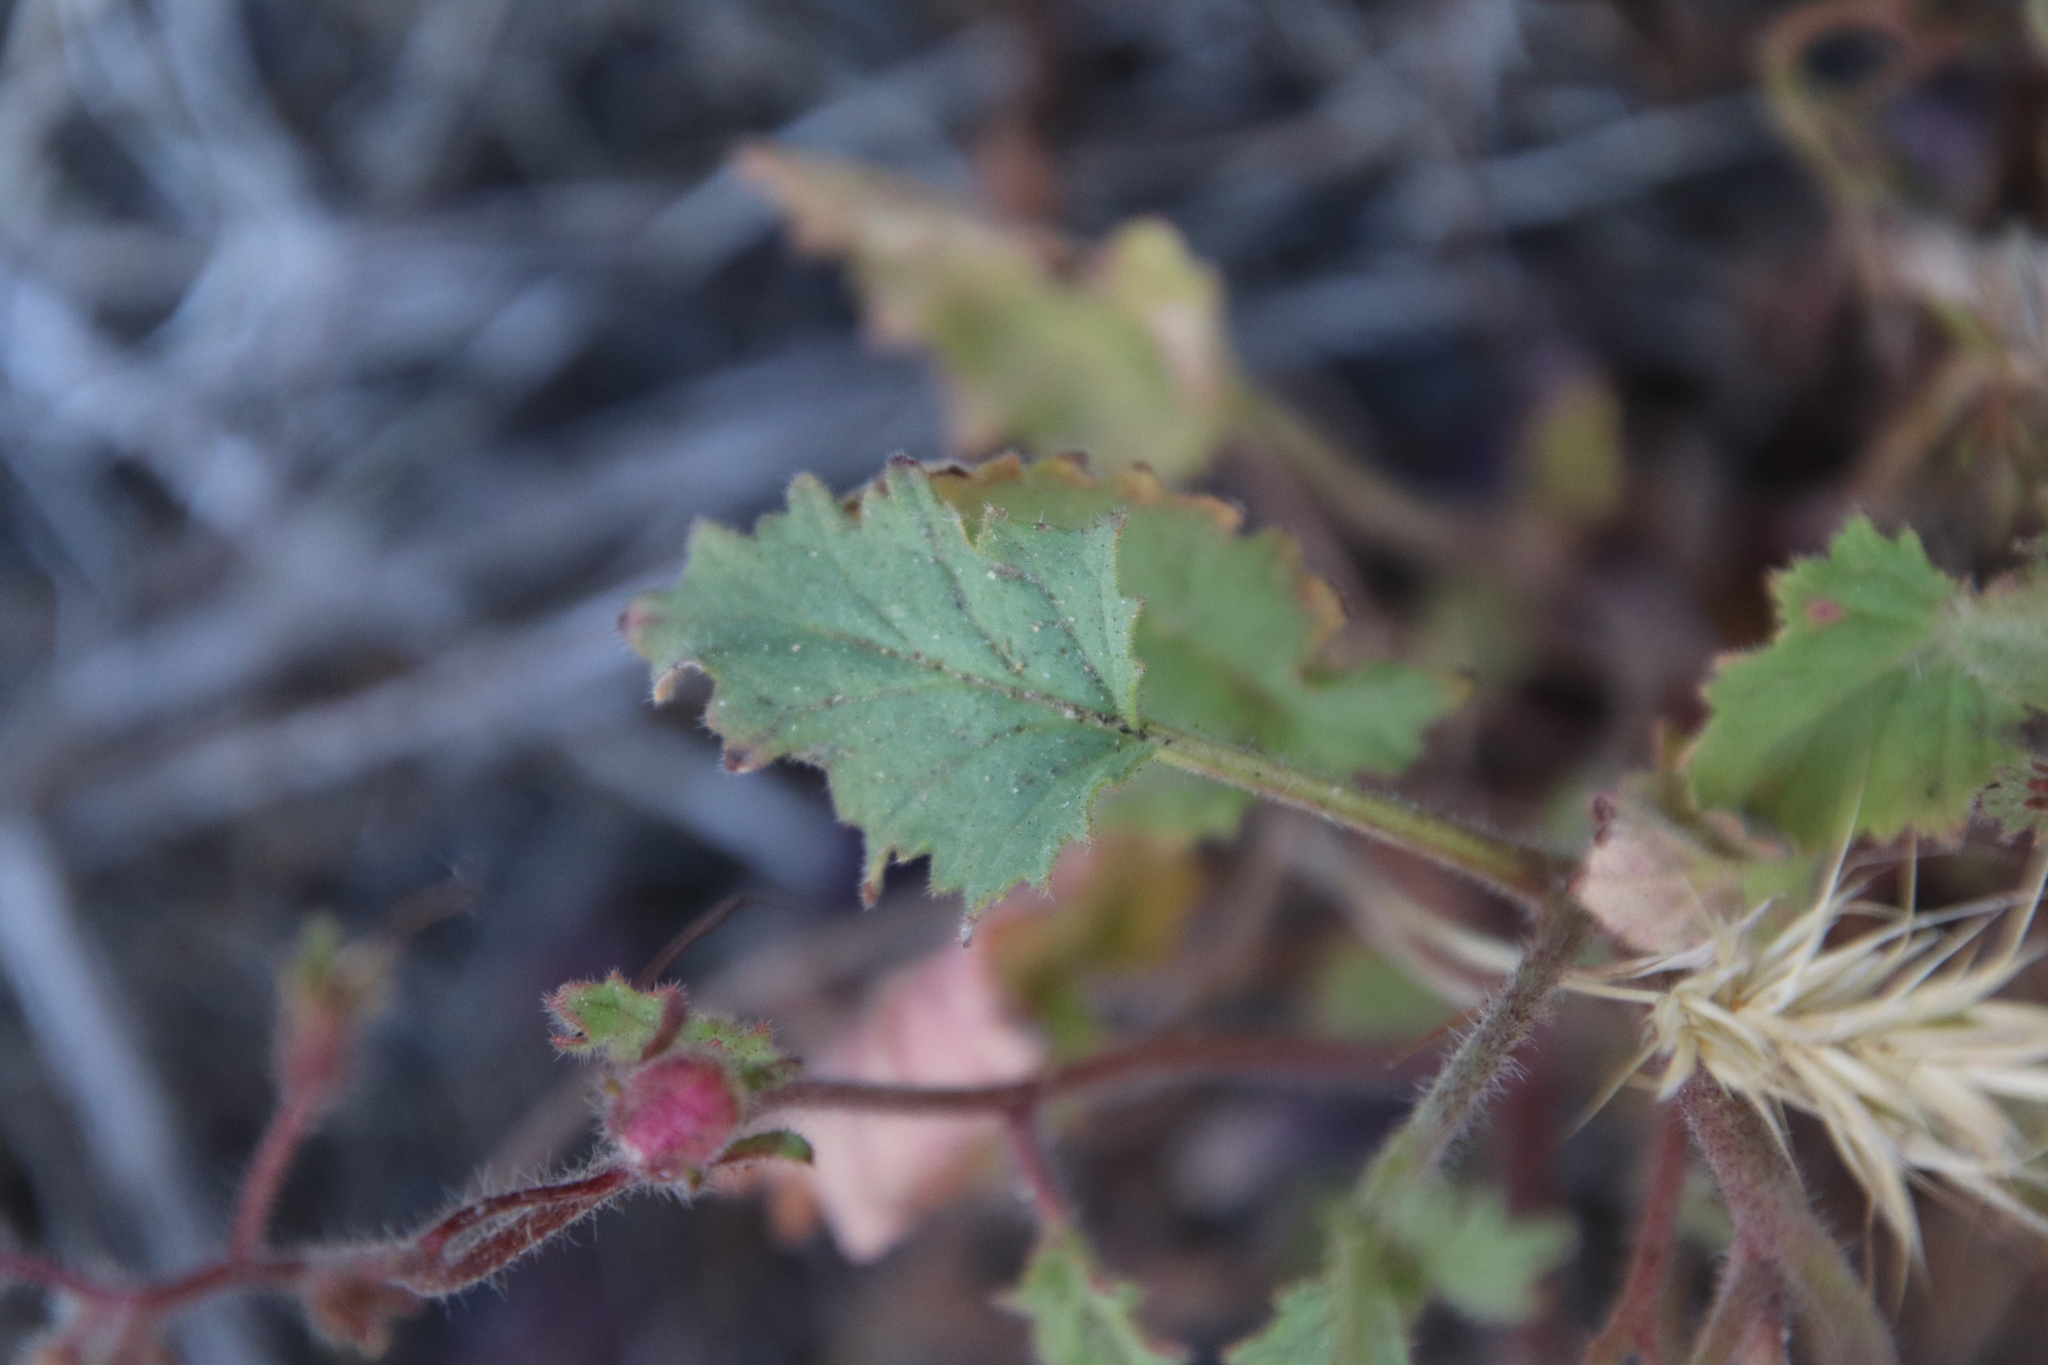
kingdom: Plantae
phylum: Tracheophyta
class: Magnoliopsida
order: Boraginales
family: Hydrophyllaceae
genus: Phacelia
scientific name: Phacelia minor
